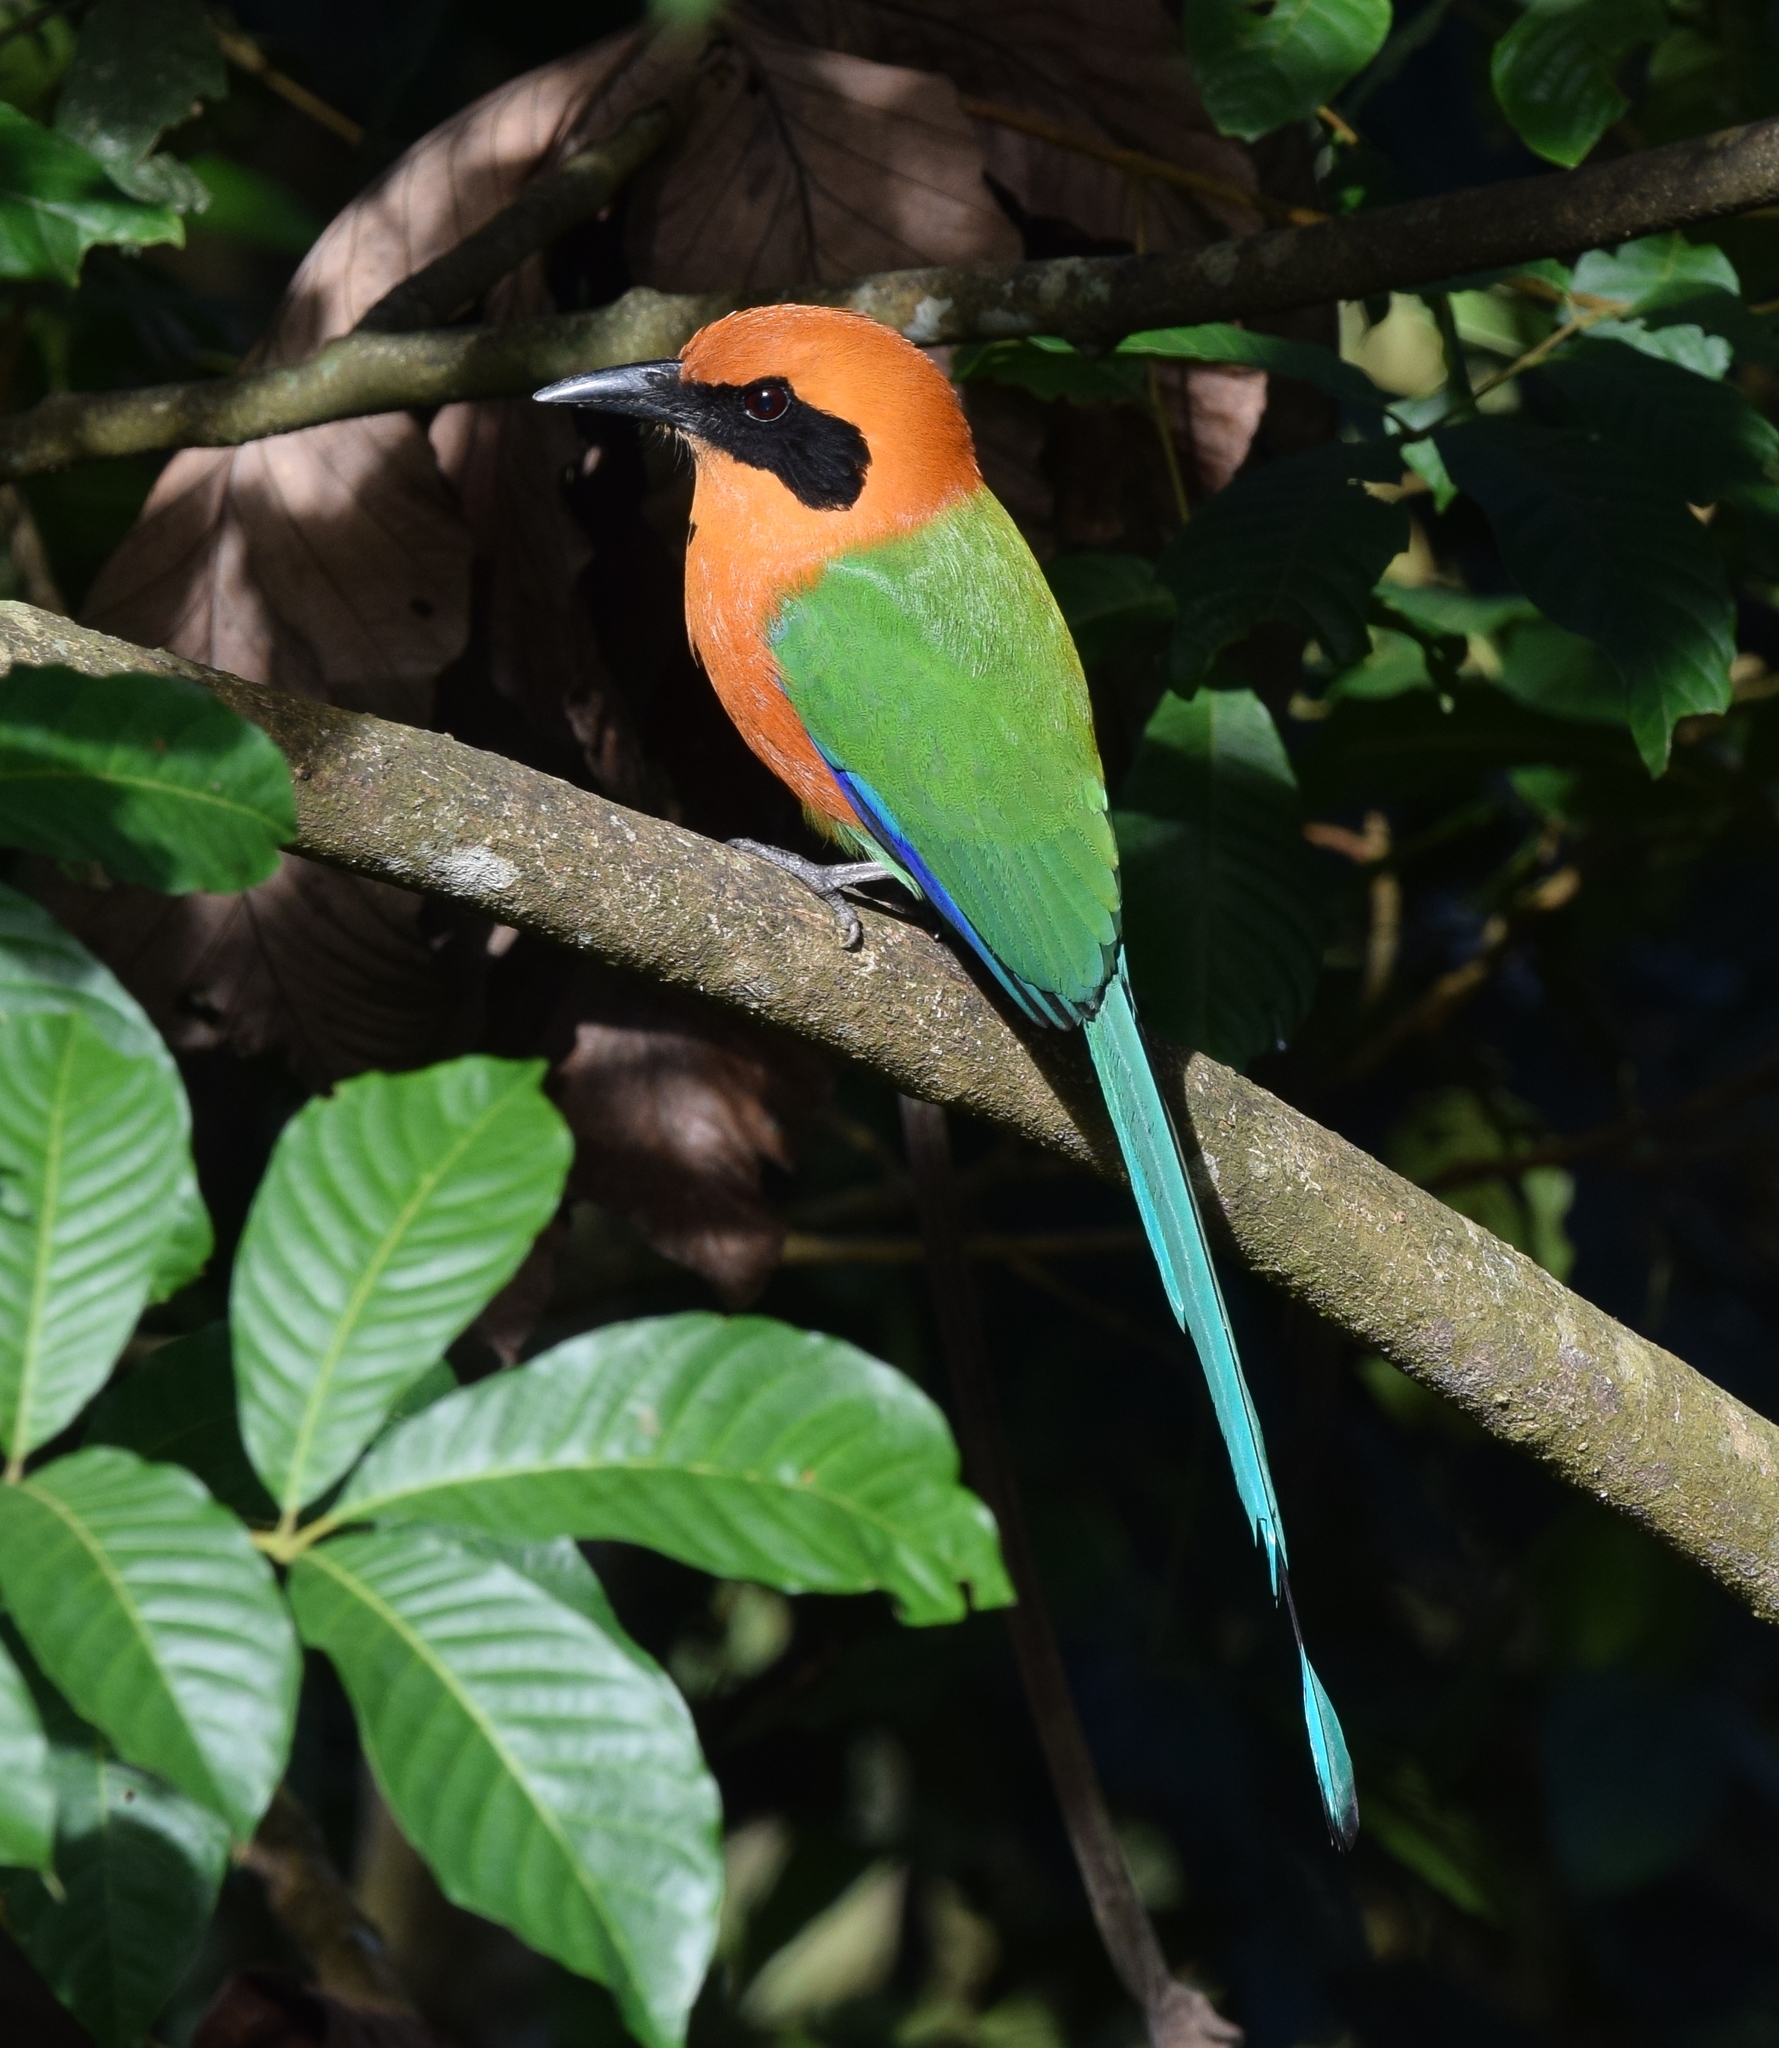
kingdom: Animalia
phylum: Chordata
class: Aves
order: Coraciiformes
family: Momotidae
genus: Baryphthengus
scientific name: Baryphthengus martii
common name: Rufous motmot
